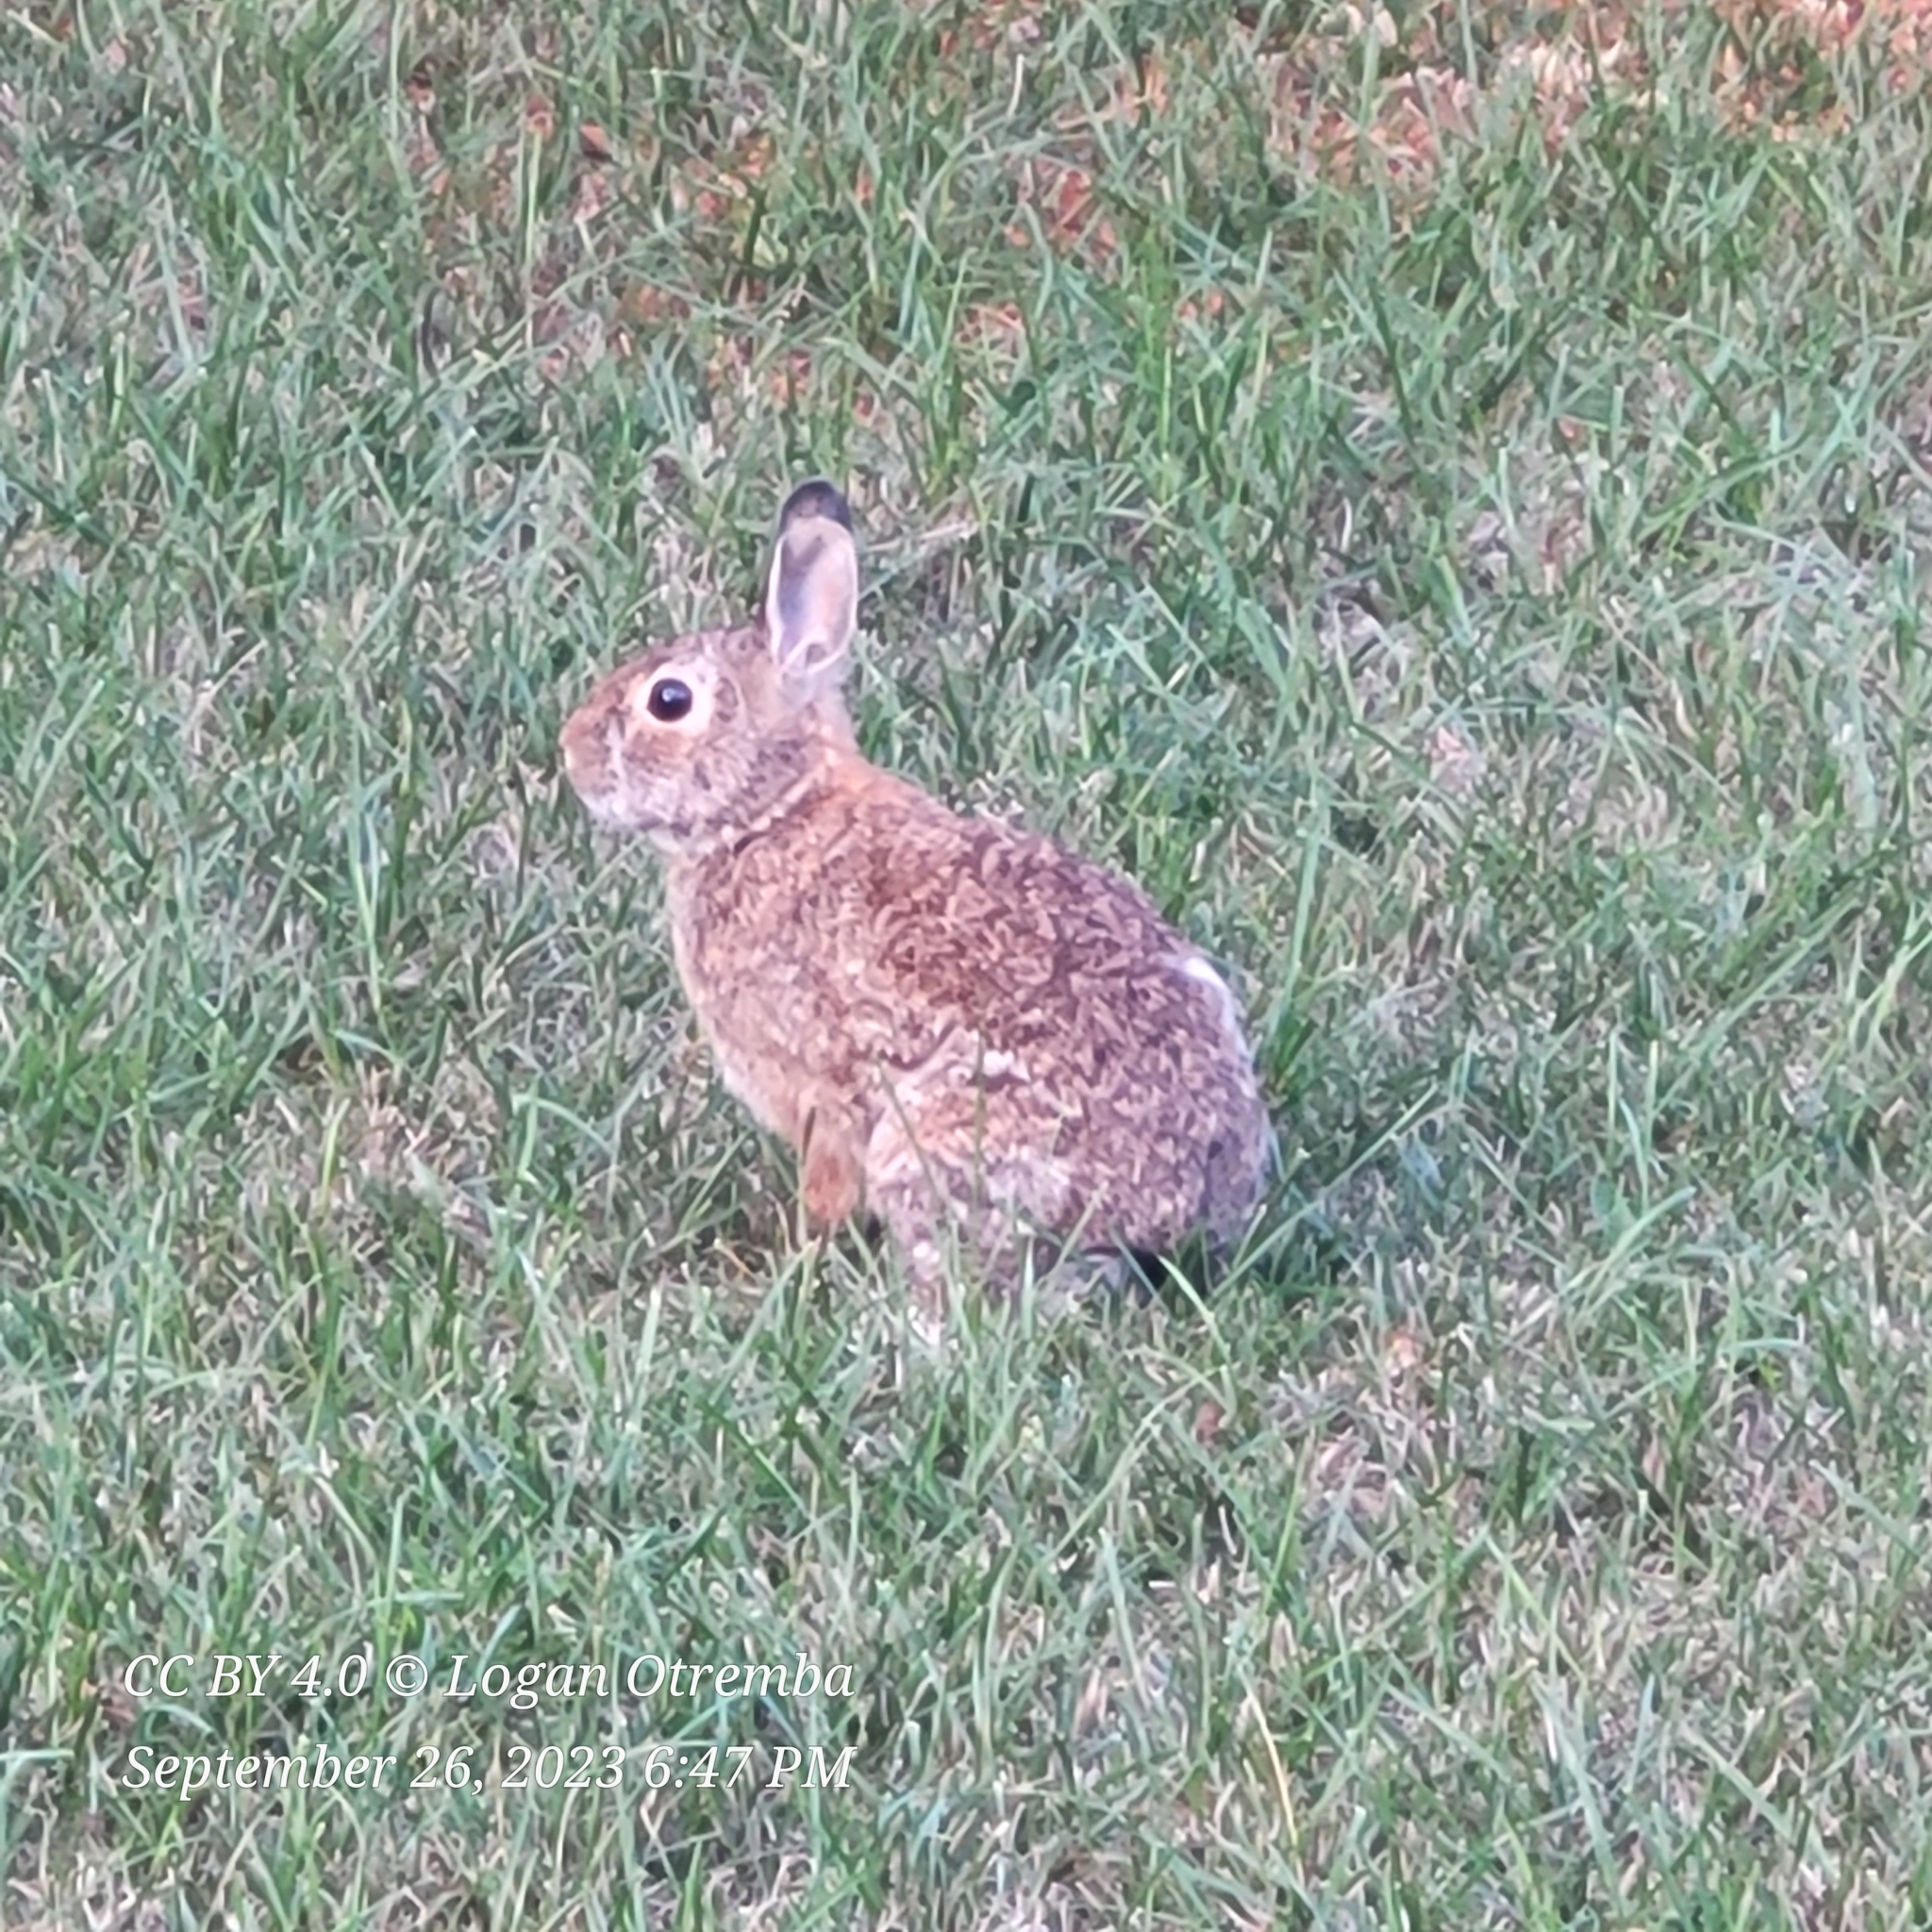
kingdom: Animalia
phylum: Chordata
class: Mammalia
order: Lagomorpha
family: Leporidae
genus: Sylvilagus
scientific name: Sylvilagus floridanus
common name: Eastern cottontail
